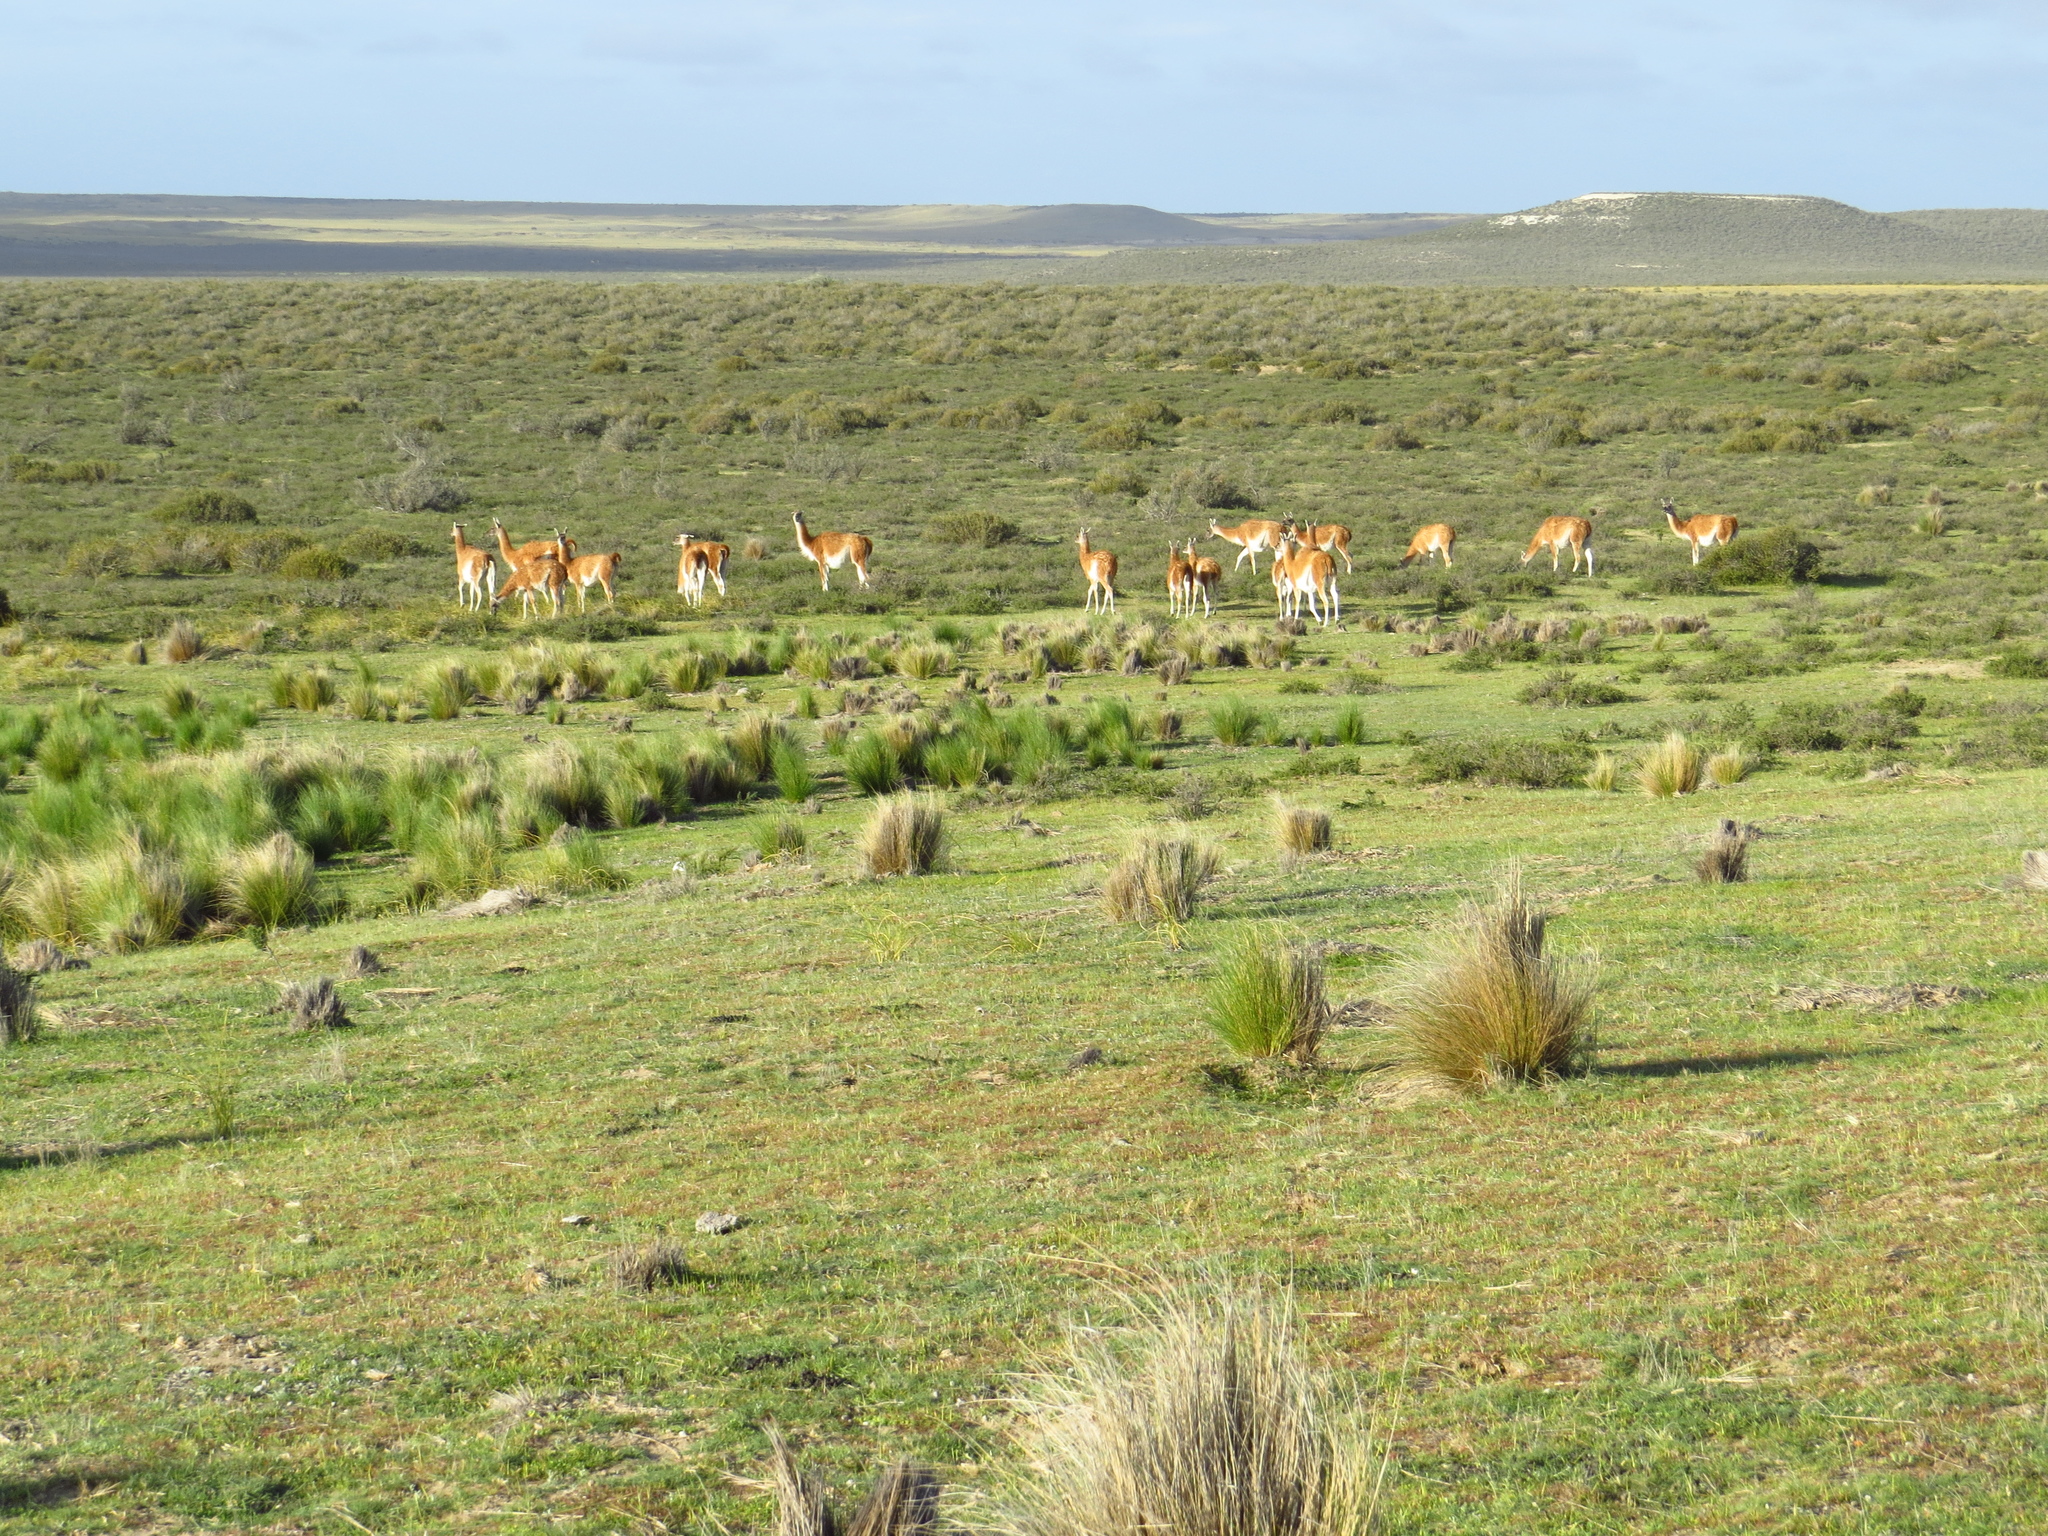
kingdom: Animalia
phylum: Chordata
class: Mammalia
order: Artiodactyla
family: Camelidae
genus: Lama
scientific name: Lama glama
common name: Llama
